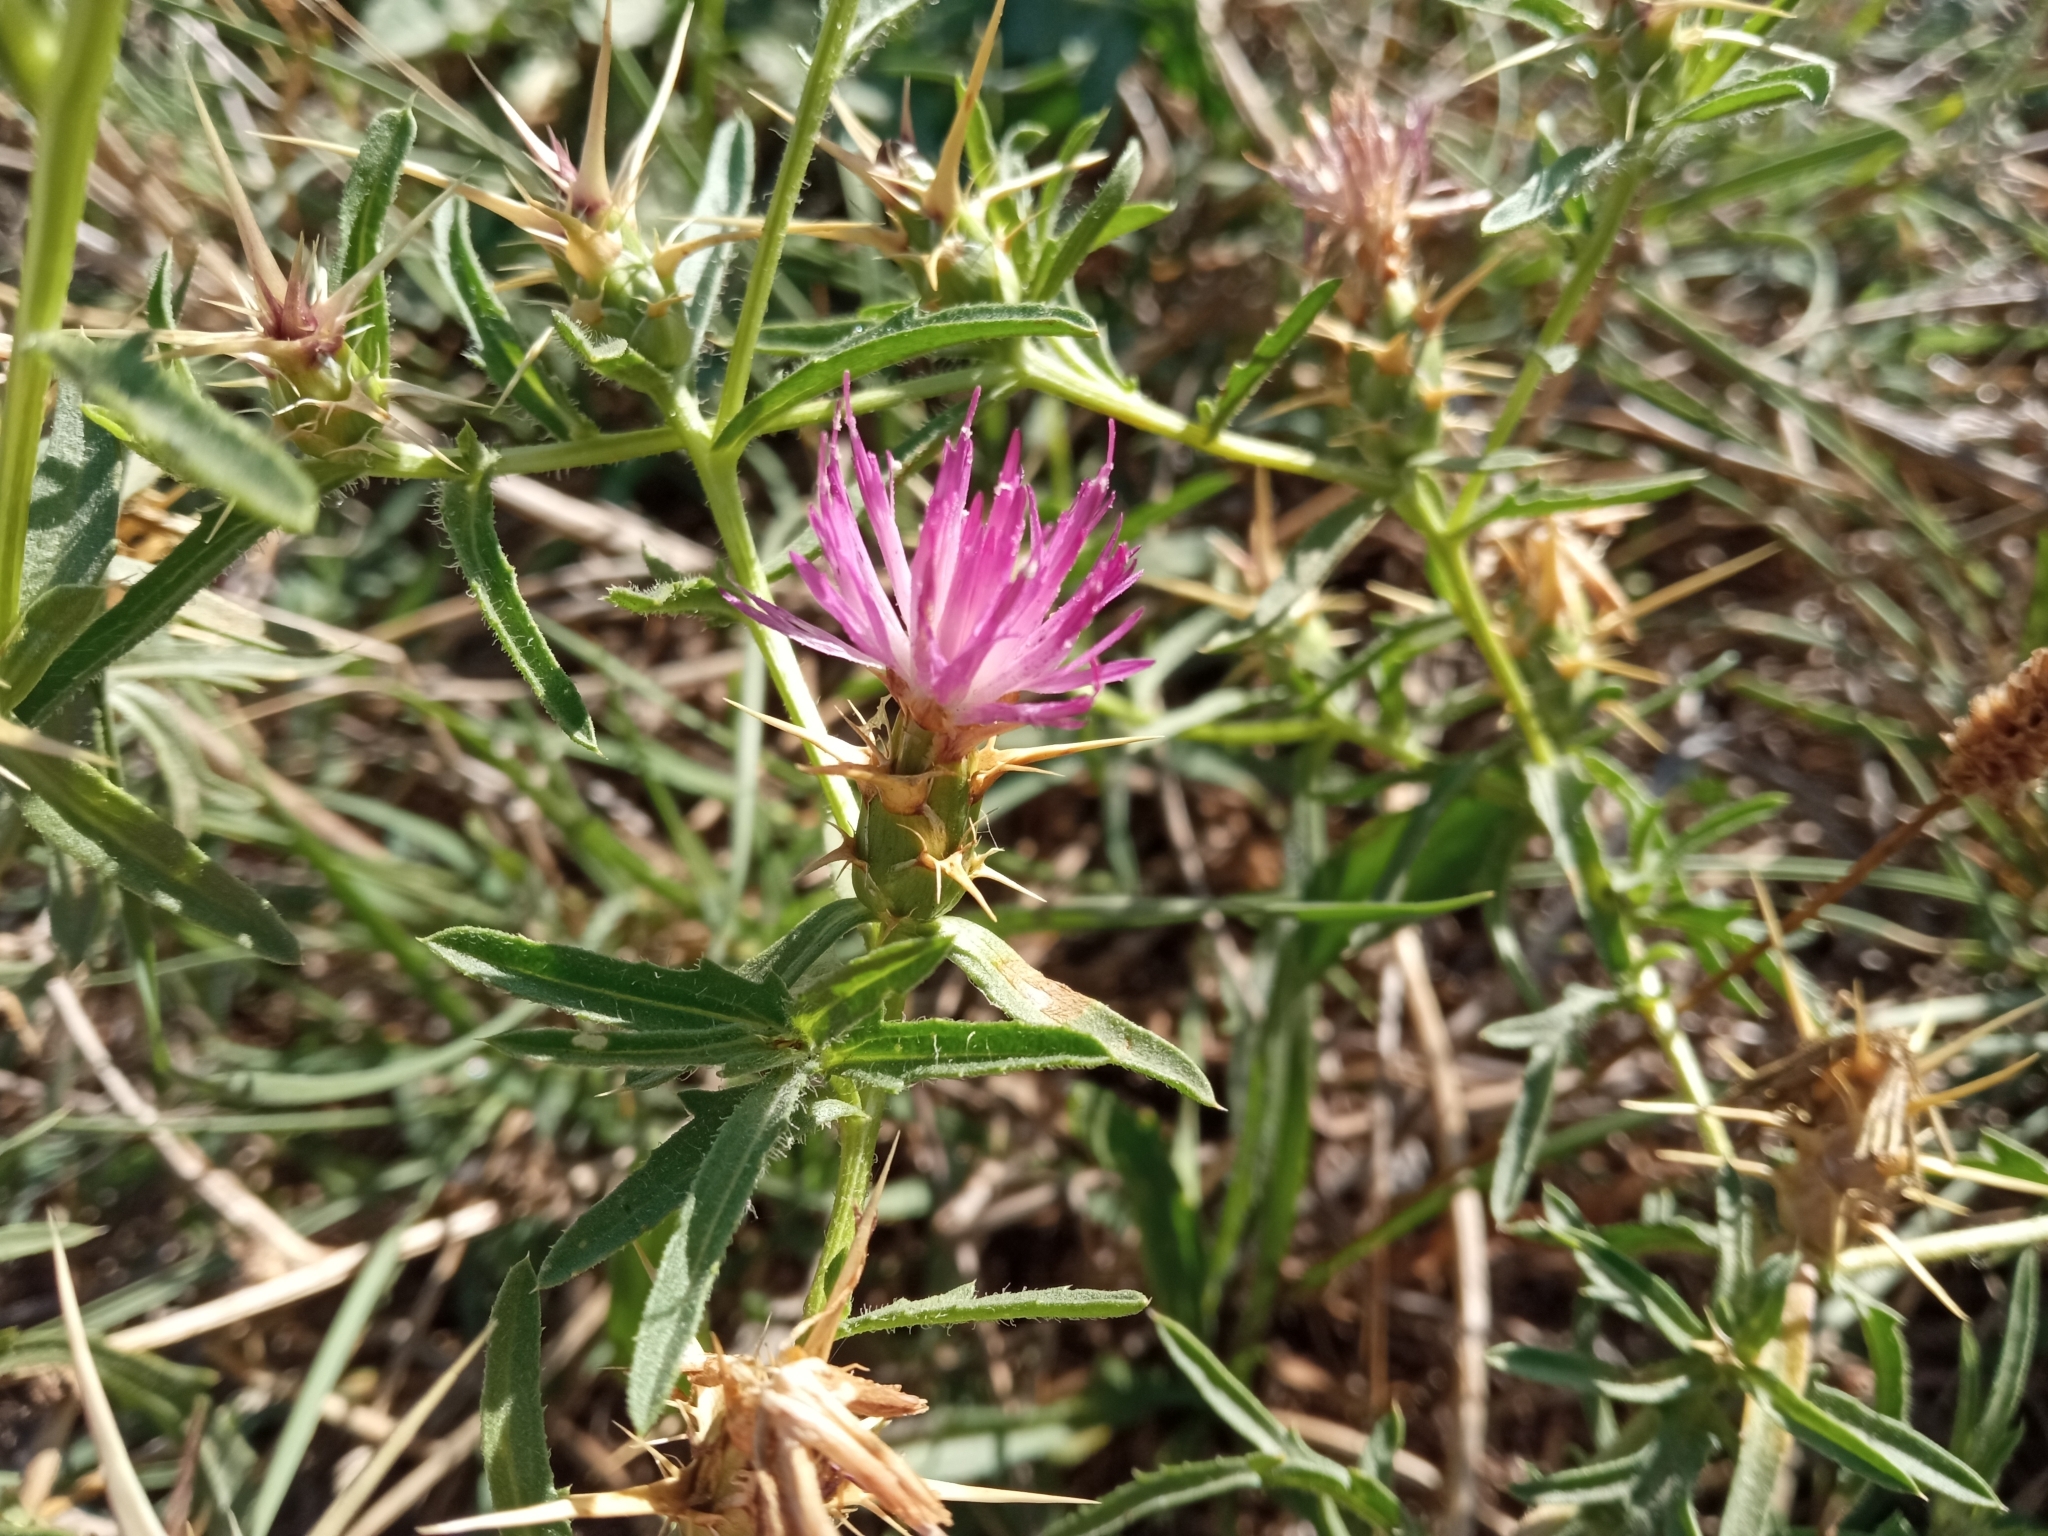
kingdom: Plantae
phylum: Tracheophyta
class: Magnoliopsida
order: Asterales
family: Asteraceae
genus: Centaurea
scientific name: Centaurea calcitrapa
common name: Red star-thistle
